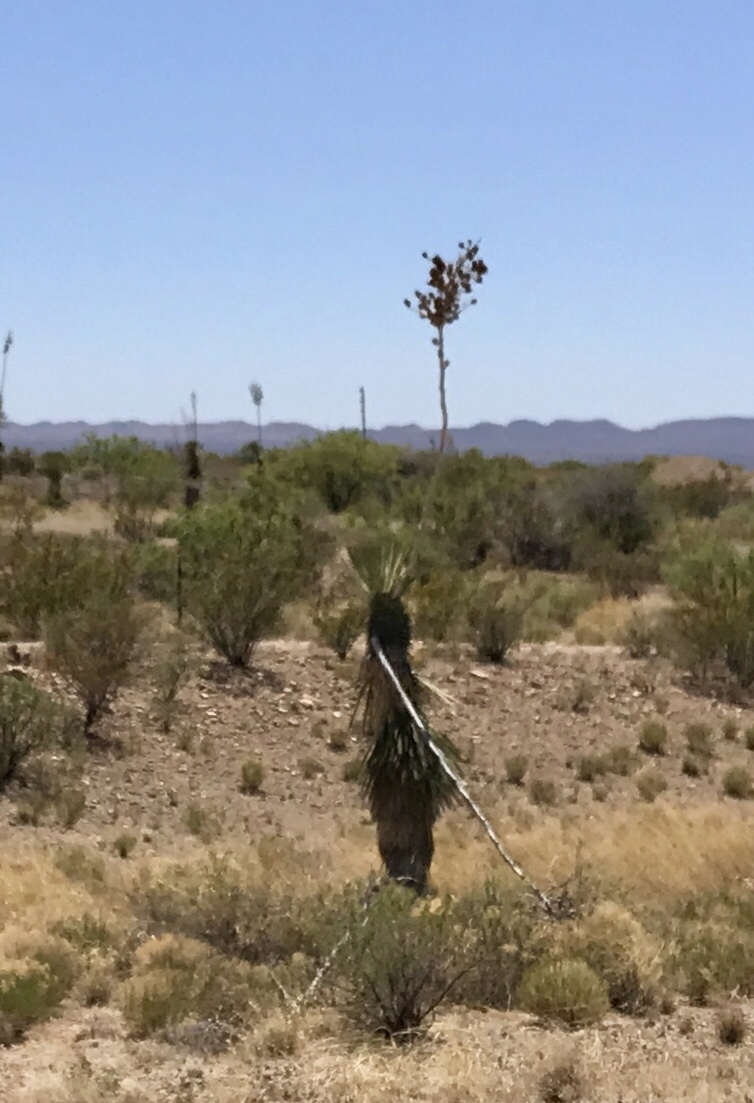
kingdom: Plantae
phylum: Tracheophyta
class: Liliopsida
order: Asparagales
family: Asparagaceae
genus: Yucca
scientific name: Yucca elata
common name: Palmella
